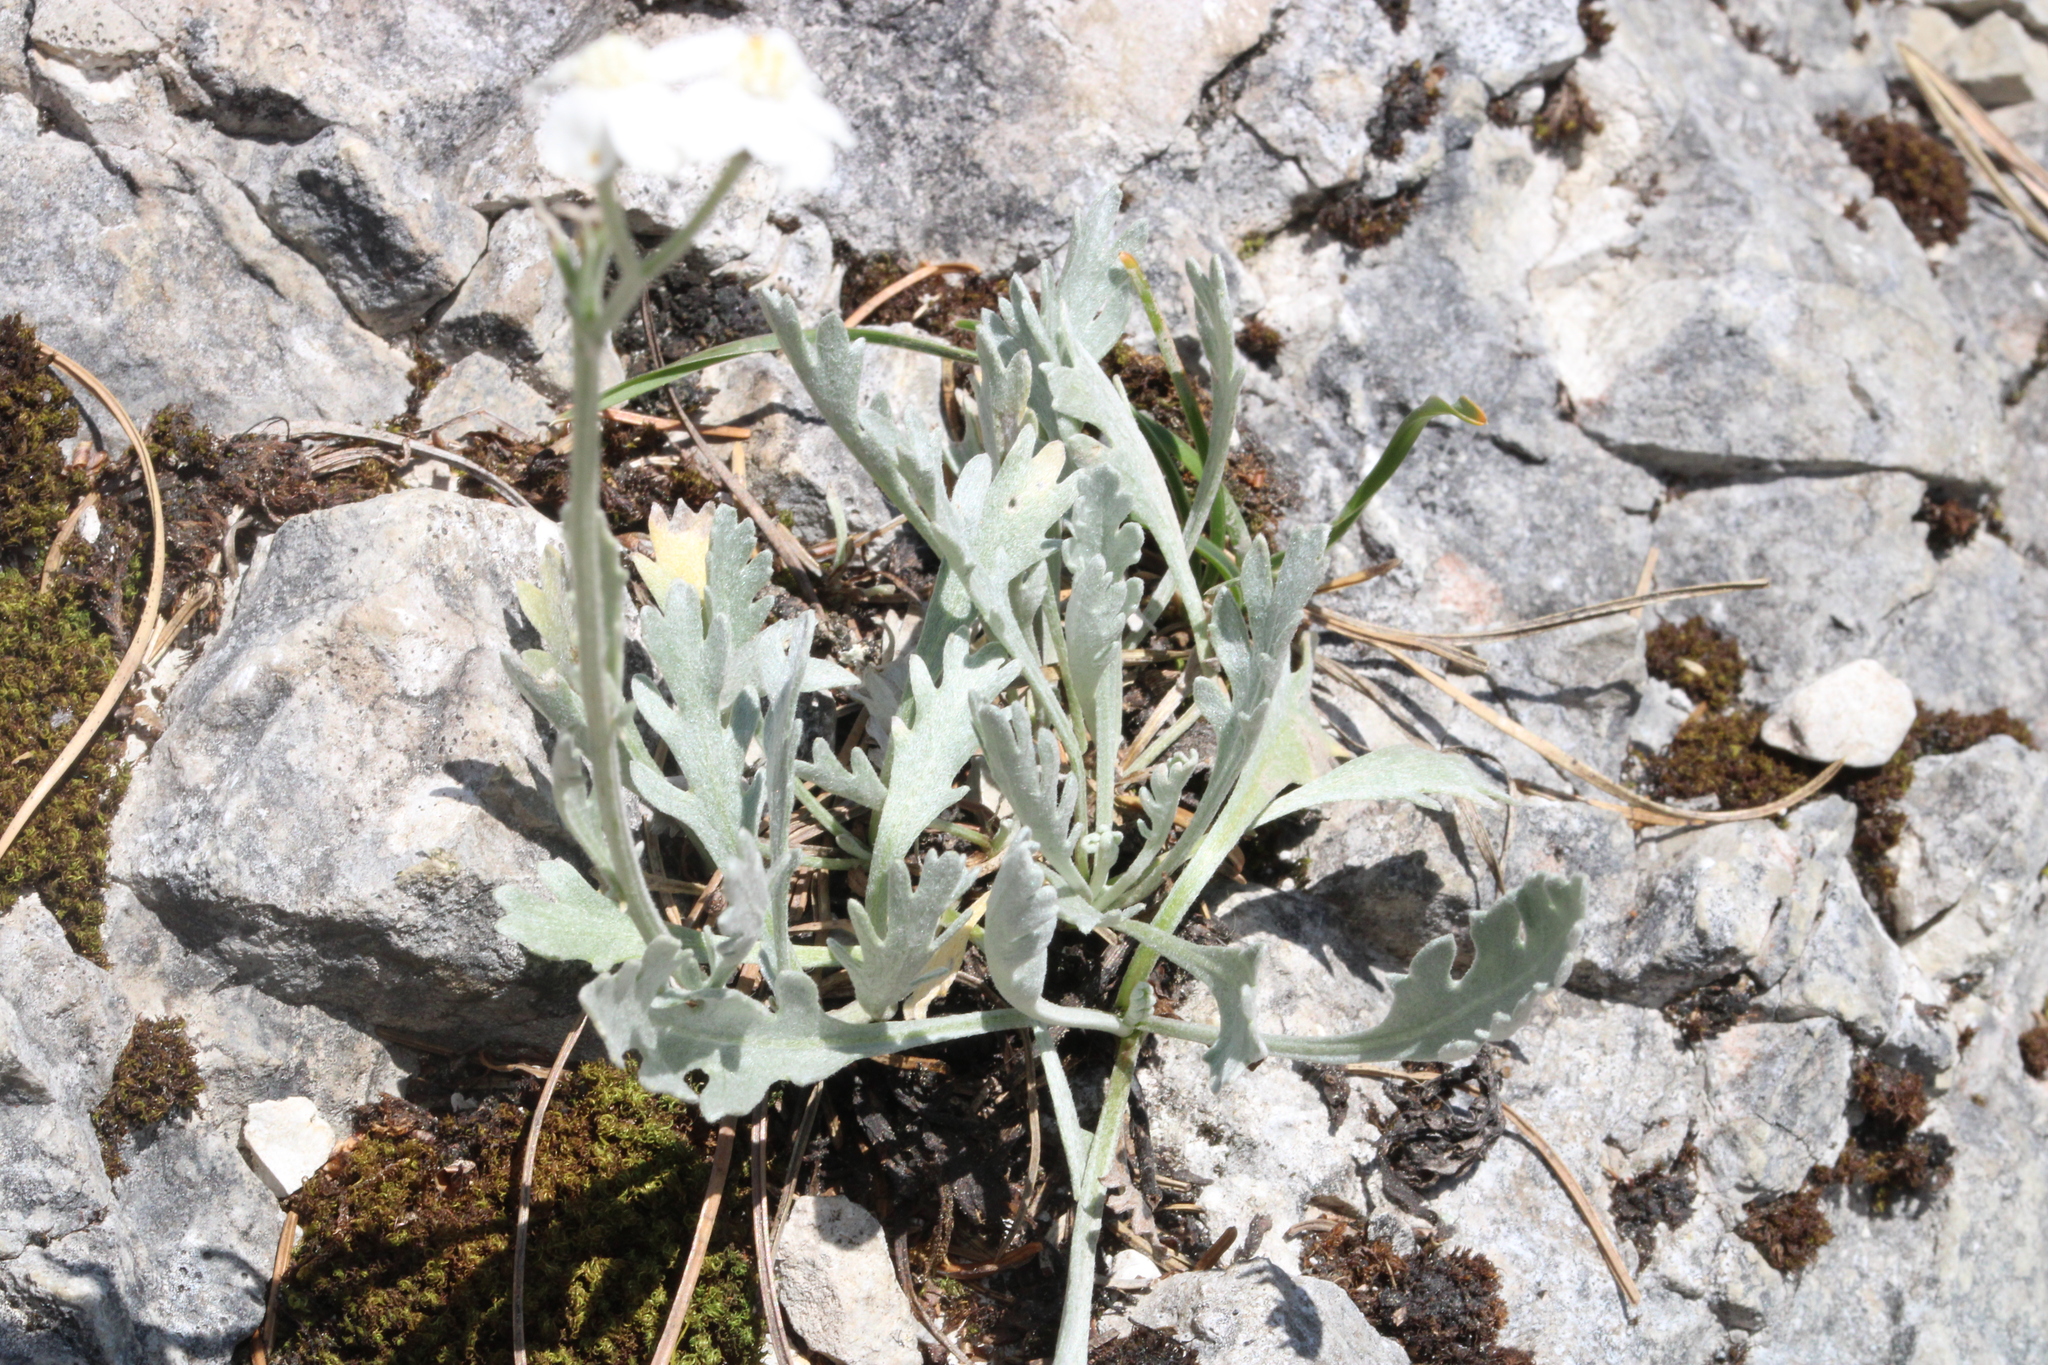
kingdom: Plantae
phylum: Tracheophyta
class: Magnoliopsida
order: Asterales
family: Asteraceae
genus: Achillea
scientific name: Achillea clavennae
